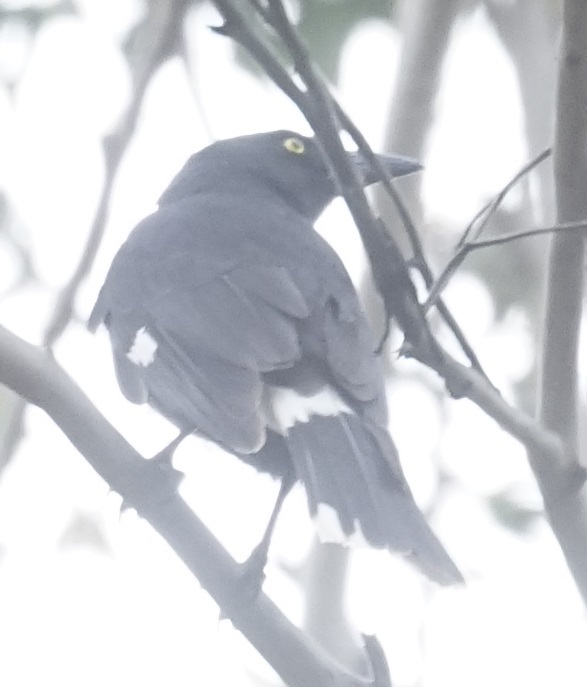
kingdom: Animalia
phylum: Chordata
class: Aves
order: Passeriformes
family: Cracticidae
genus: Strepera
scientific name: Strepera graculina
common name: Pied currawong
